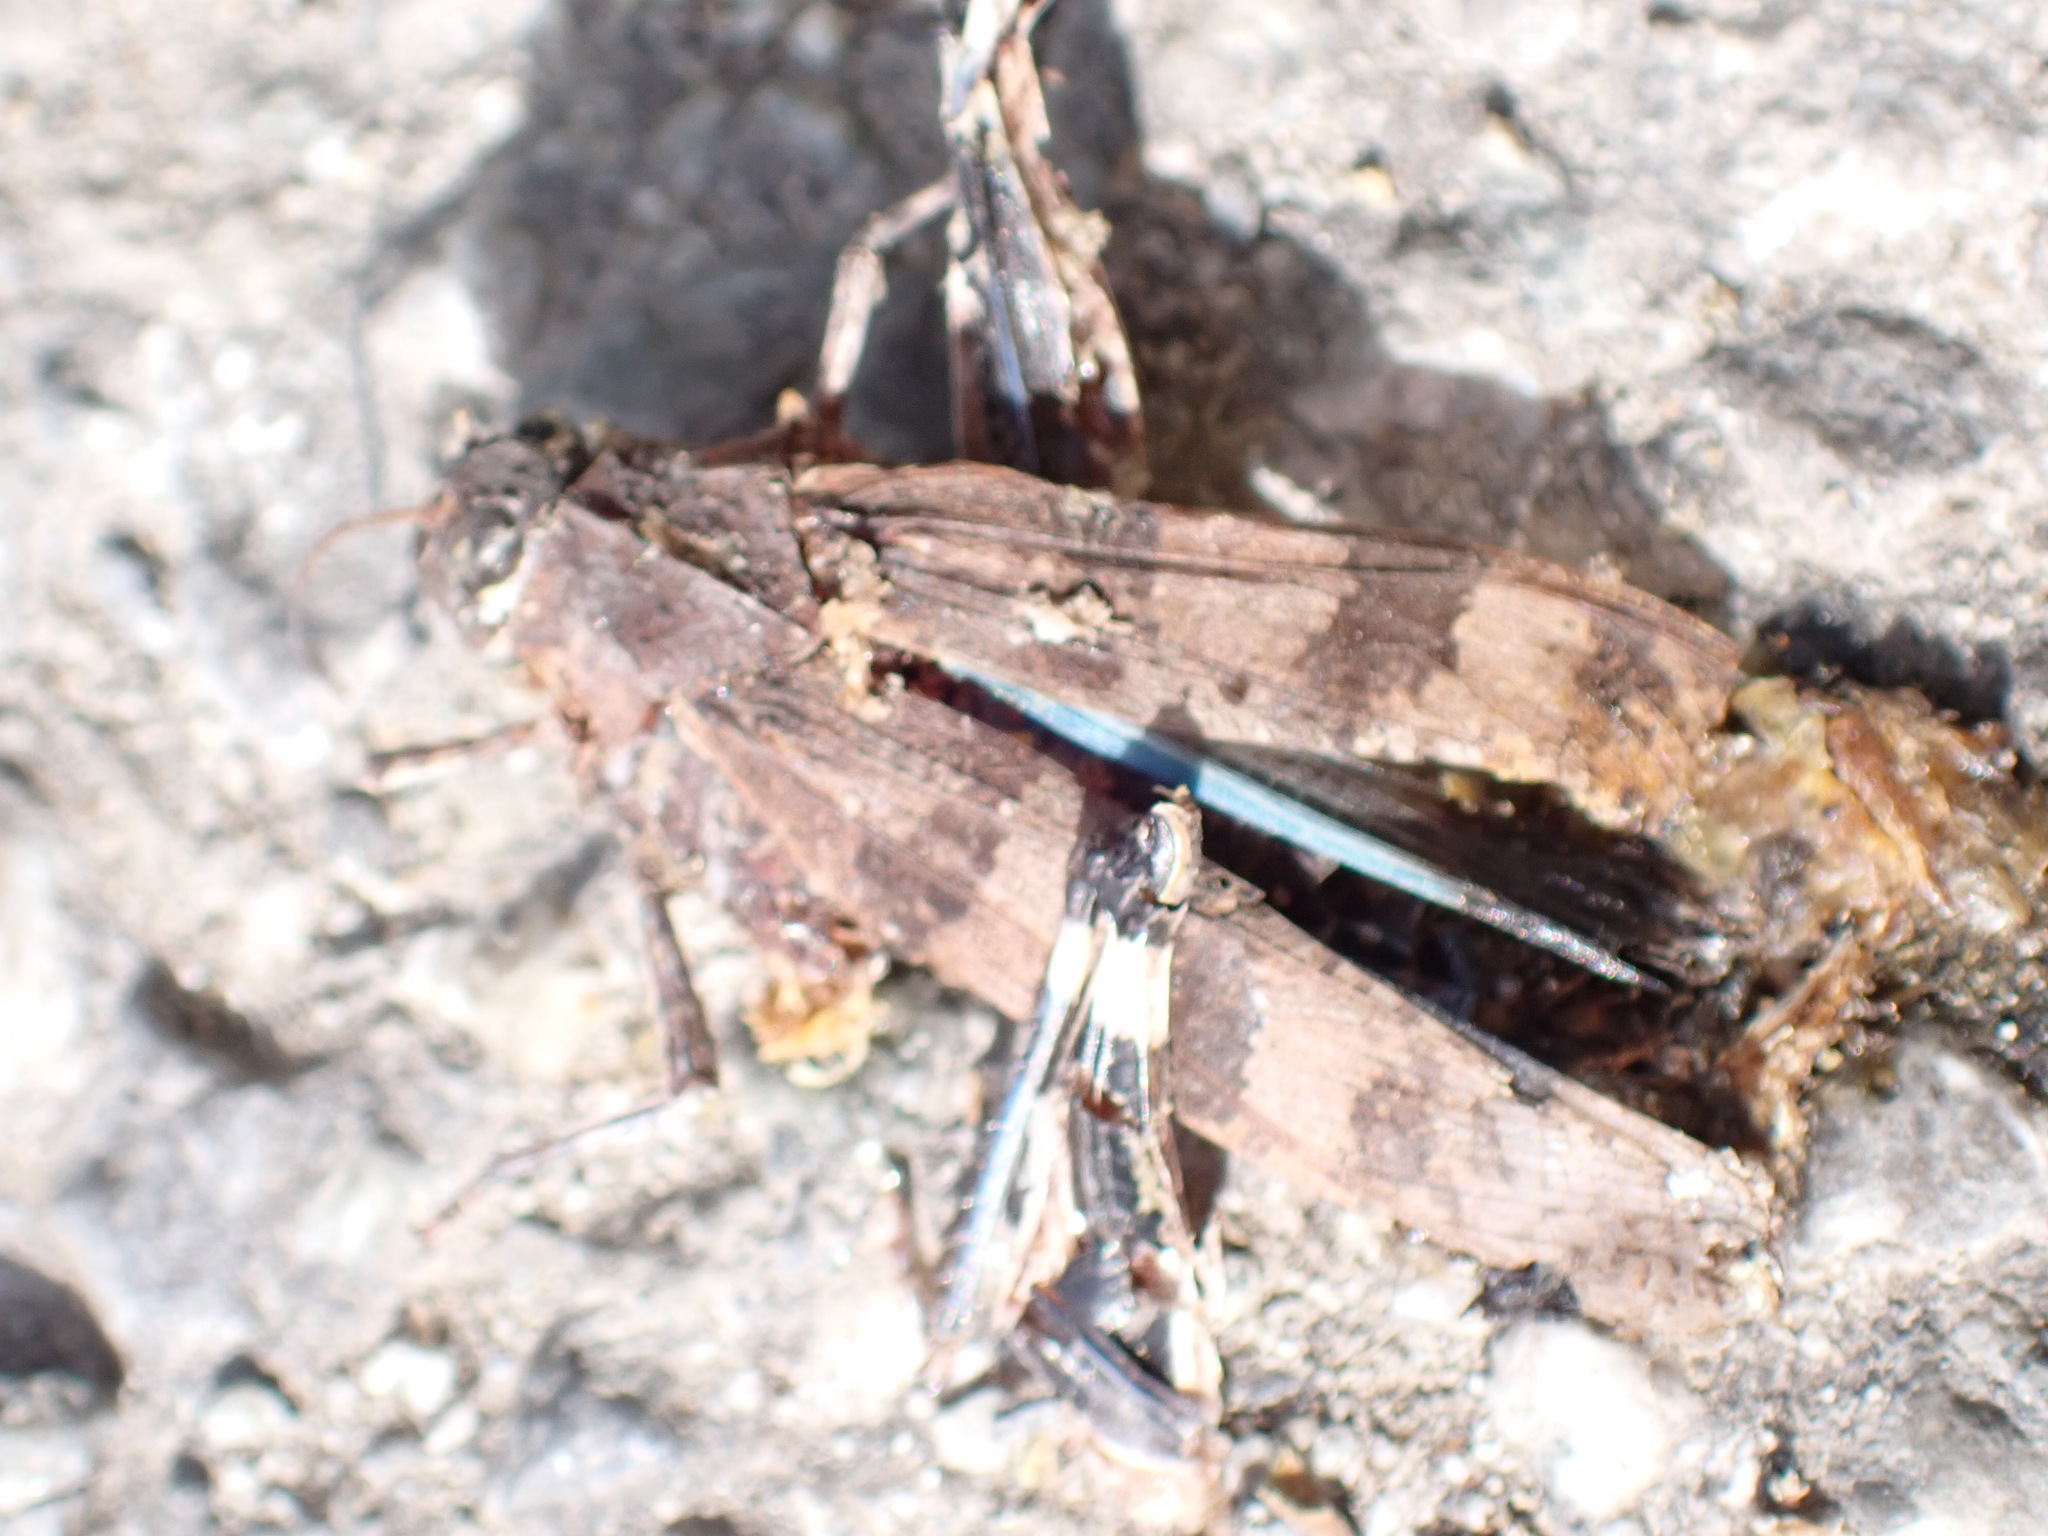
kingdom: Animalia
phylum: Arthropoda
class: Insecta
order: Orthoptera
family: Acrididae
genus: Oedipoda
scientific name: Oedipoda caerulescens
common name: Blue-winged grasshopper
